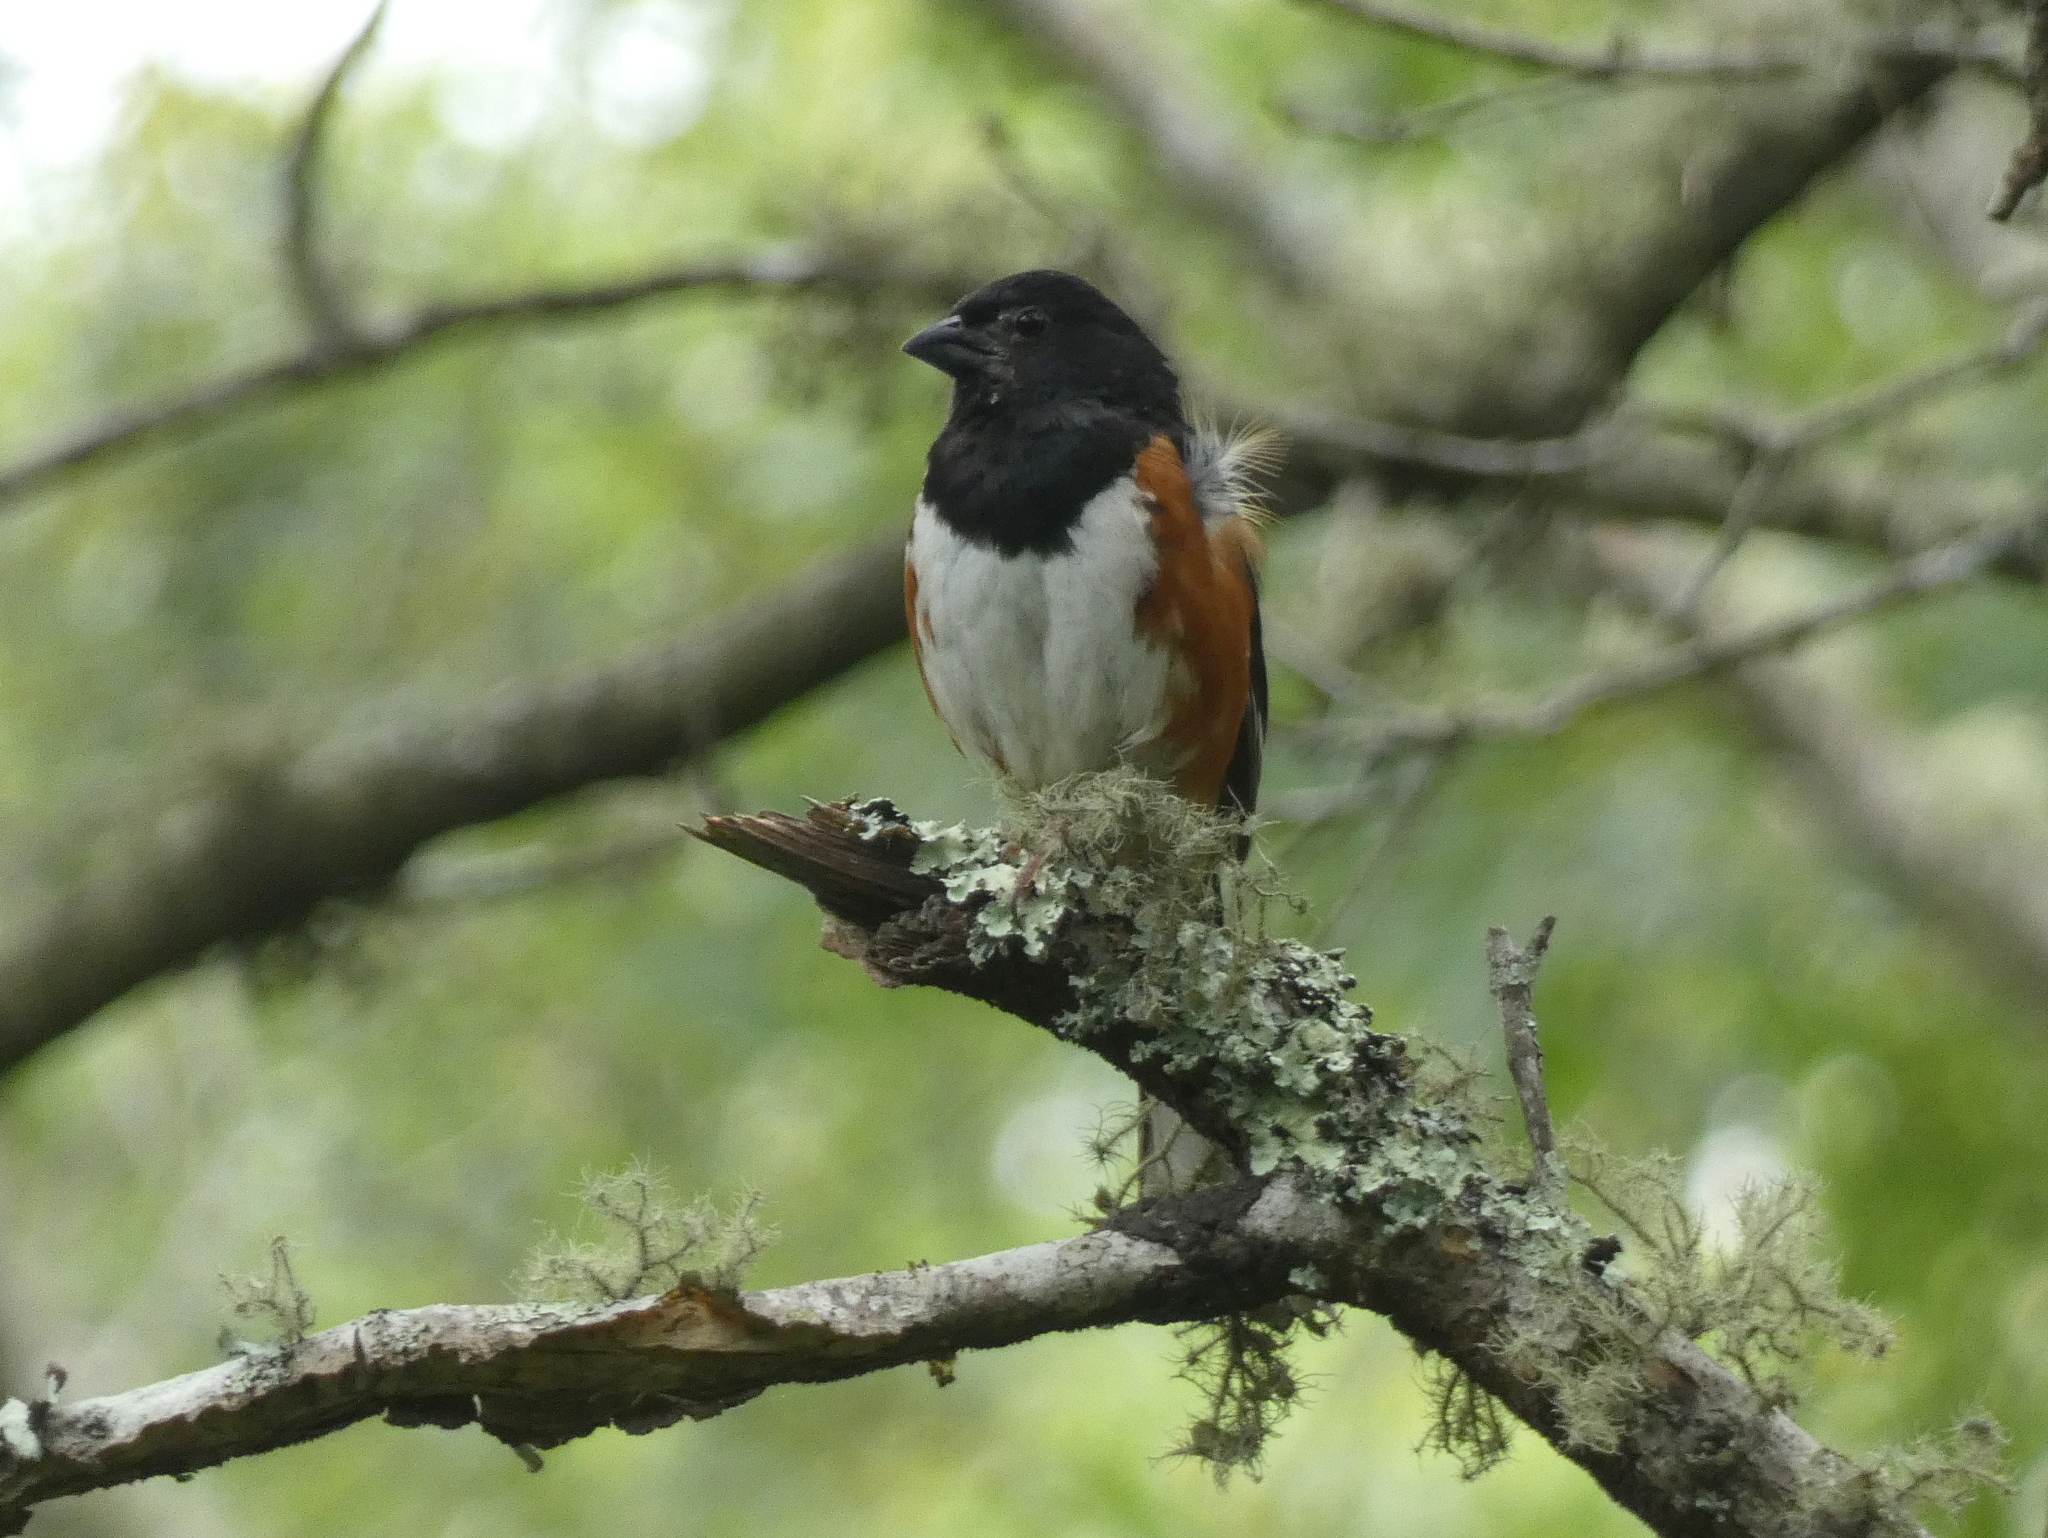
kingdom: Animalia
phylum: Chordata
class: Aves
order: Passeriformes
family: Passerellidae
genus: Pipilo
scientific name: Pipilo erythrophthalmus
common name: Eastern towhee
